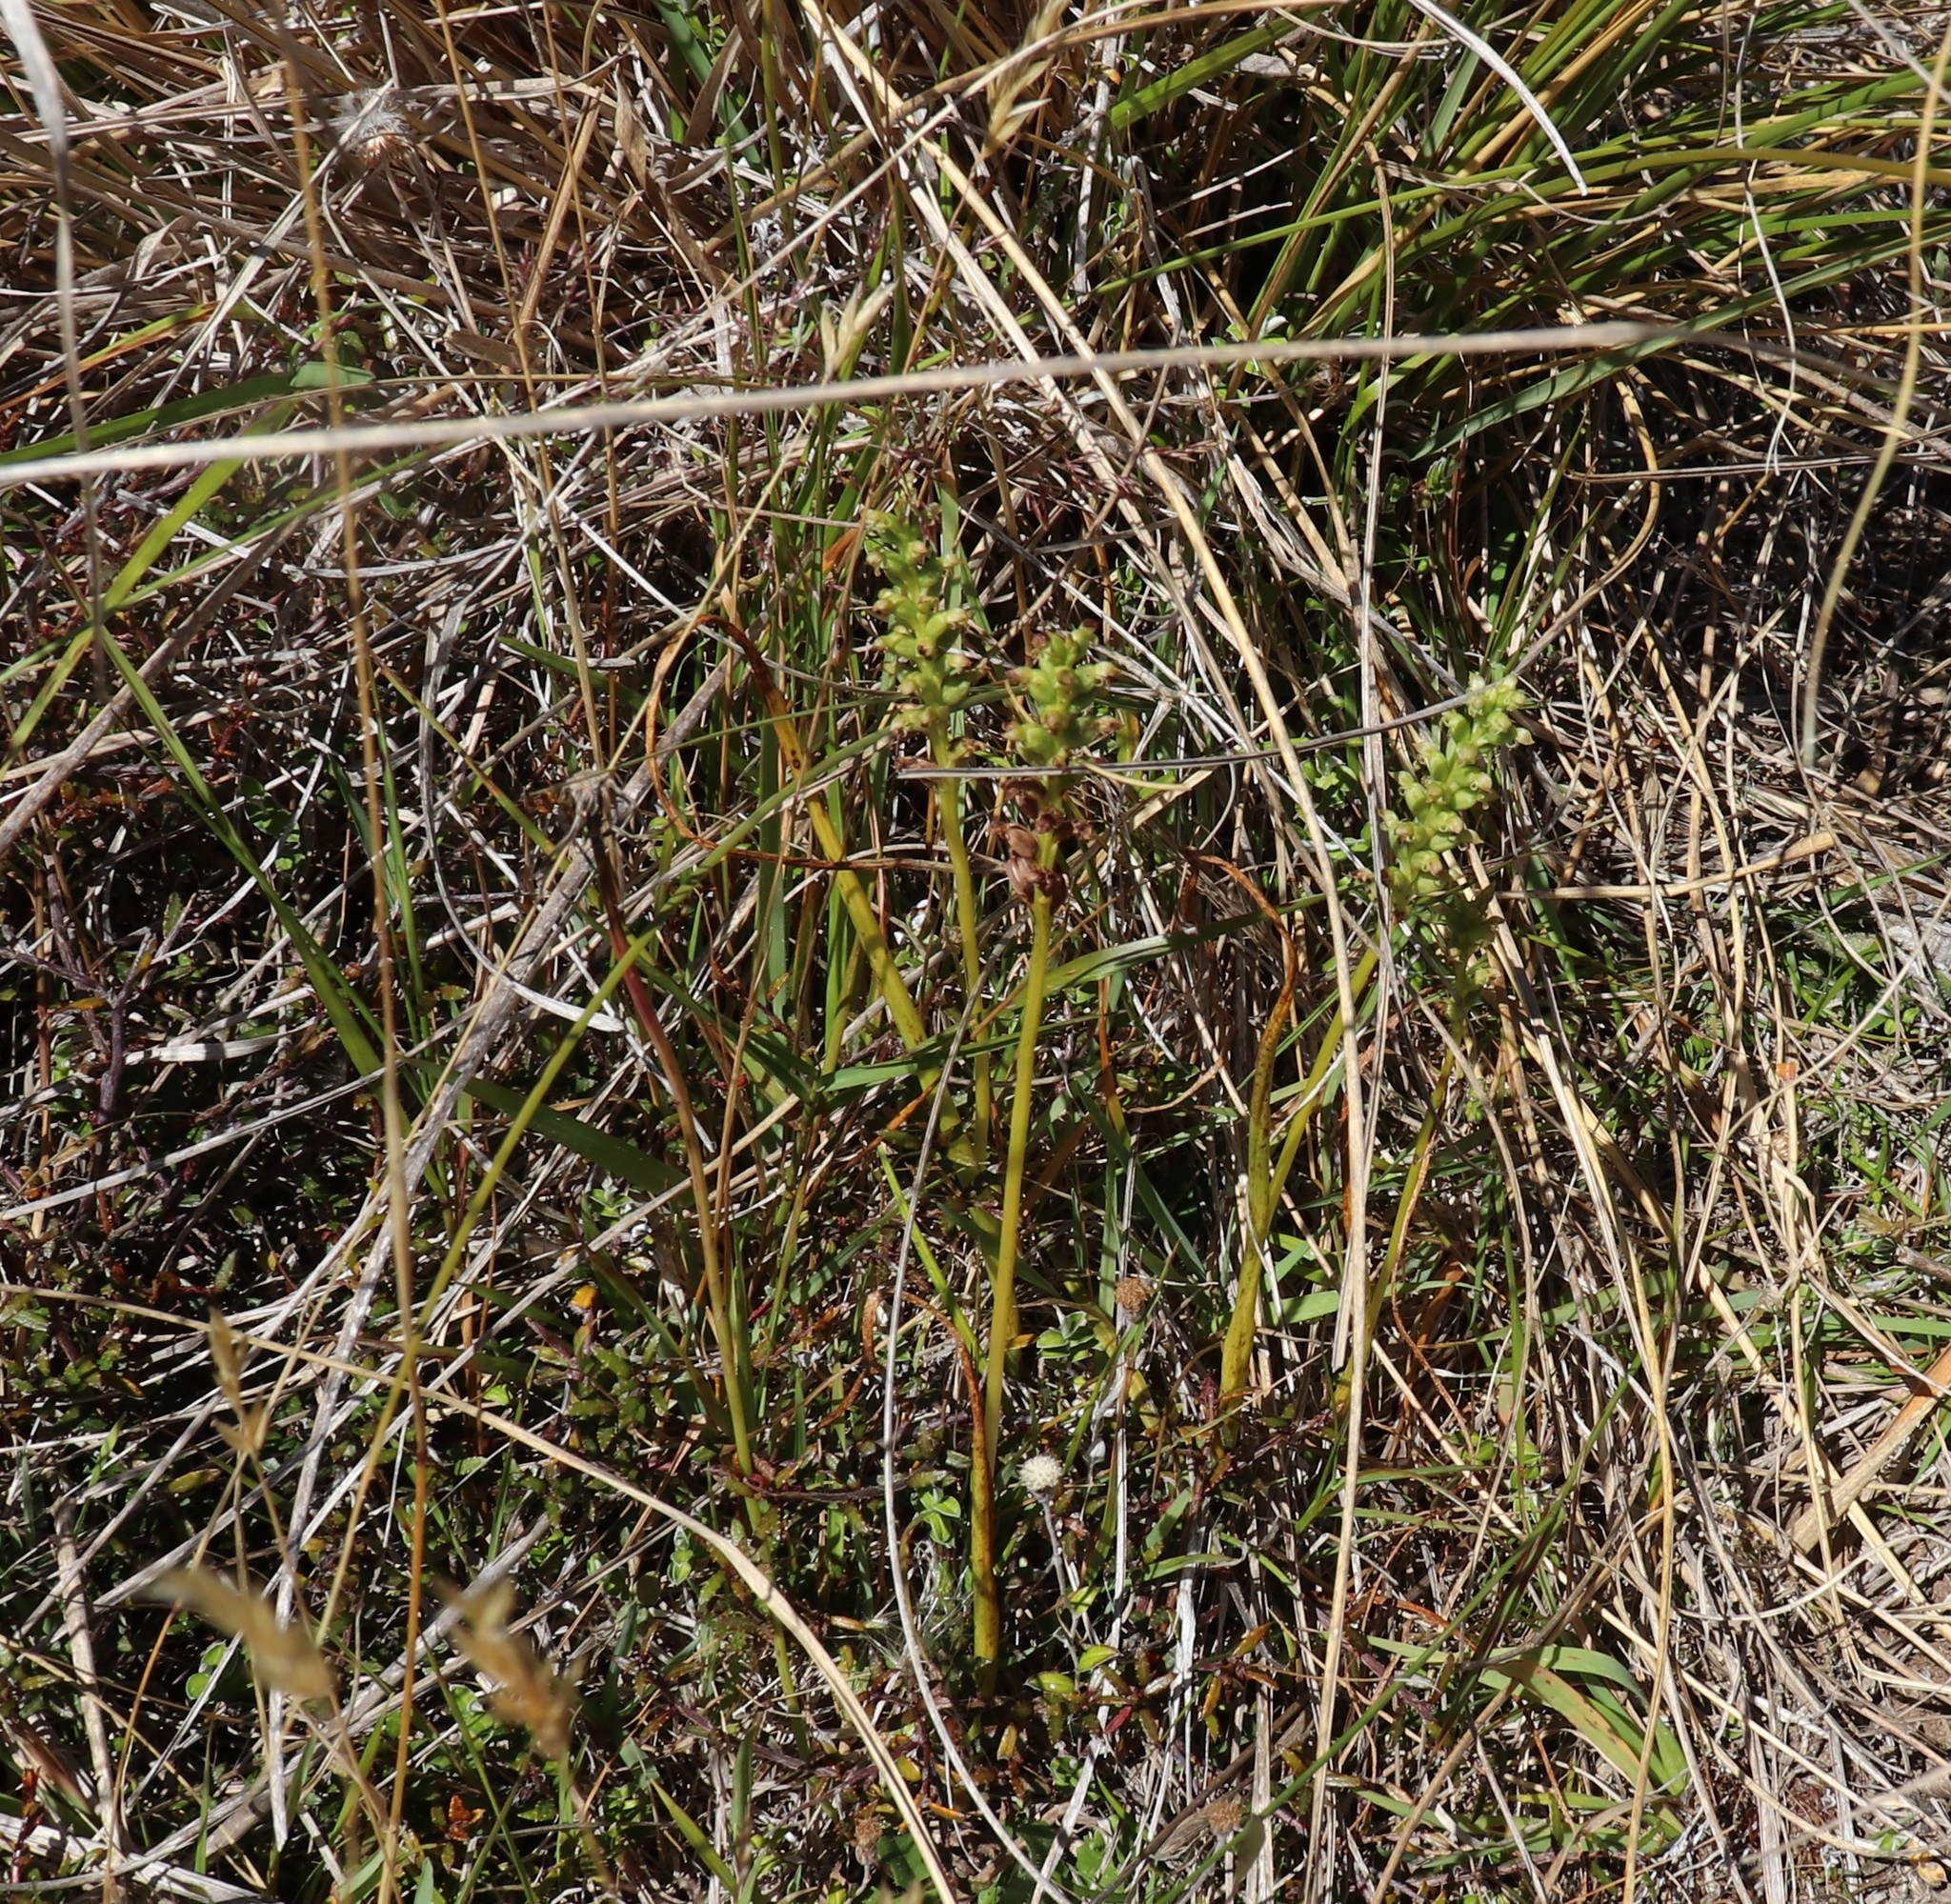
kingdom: Plantae
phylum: Tracheophyta
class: Liliopsida
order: Asparagales
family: Orchidaceae
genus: Microtis
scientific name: Microtis unifolia
